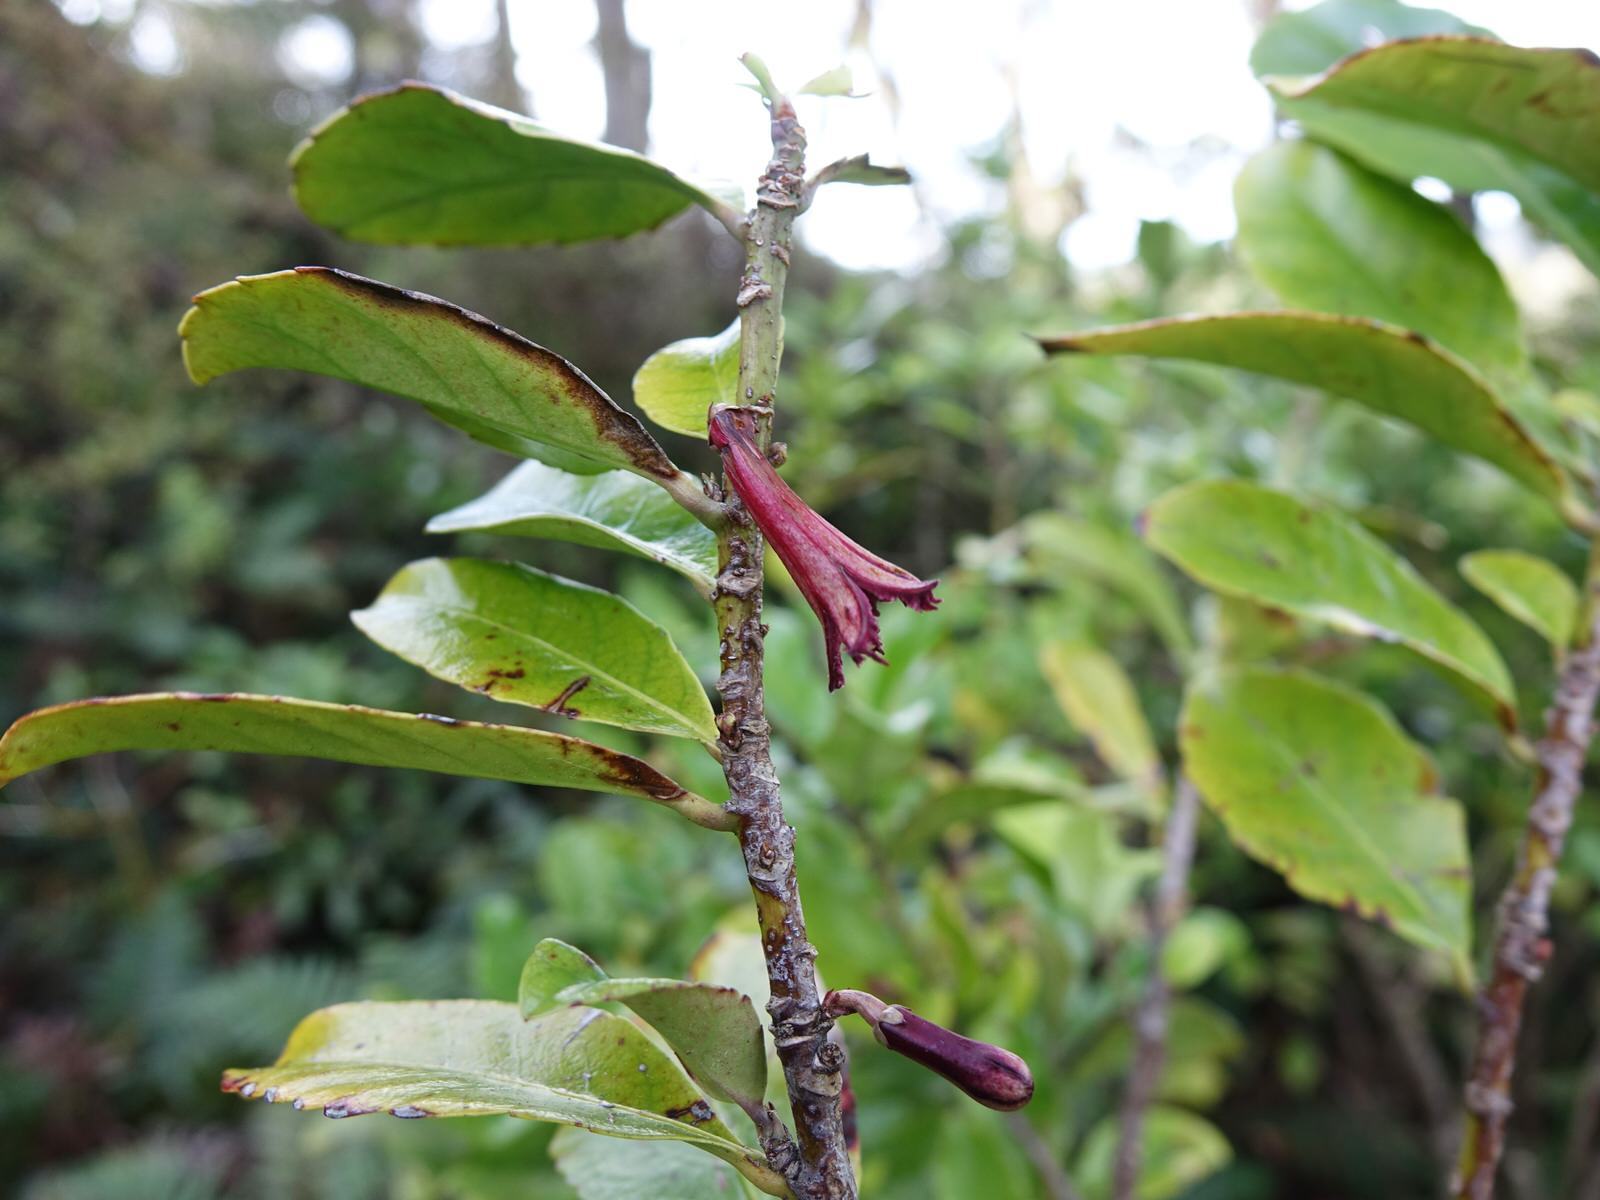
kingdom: Plantae
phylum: Tracheophyta
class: Magnoliopsida
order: Asterales
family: Alseuosmiaceae
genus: Alseuosmia
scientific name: Alseuosmia macrophylla
